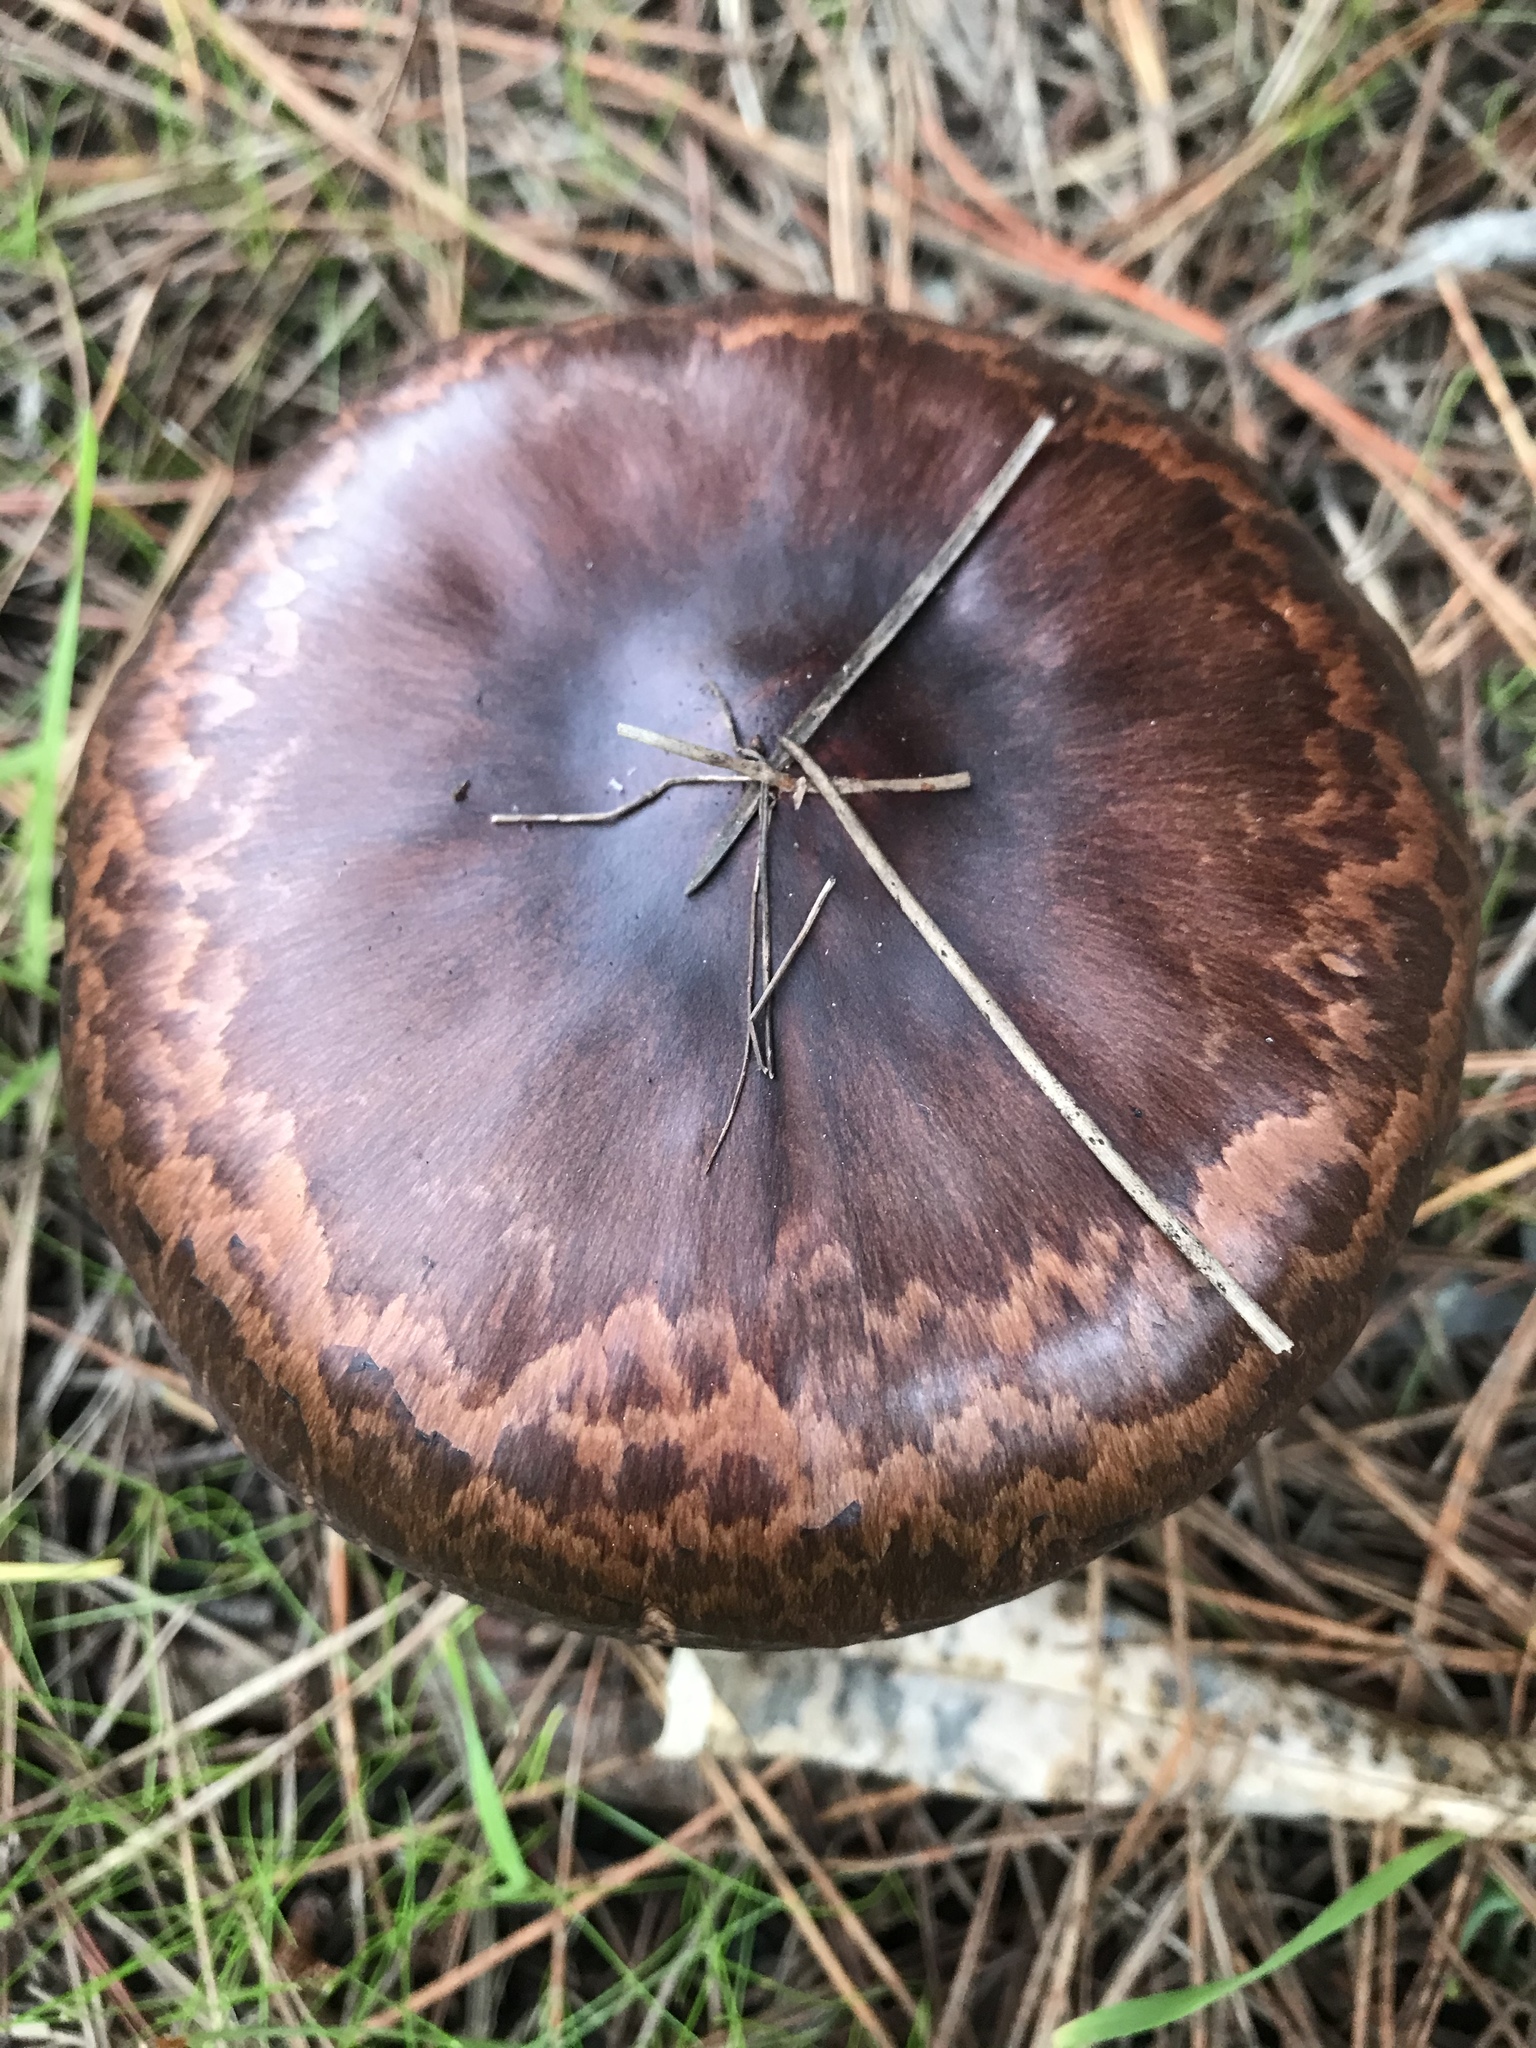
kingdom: Fungi
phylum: Basidiomycota
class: Agaricomycetes
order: Boletales
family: Gomphidiaceae
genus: Chroogomphus
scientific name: Chroogomphus vinicolor
